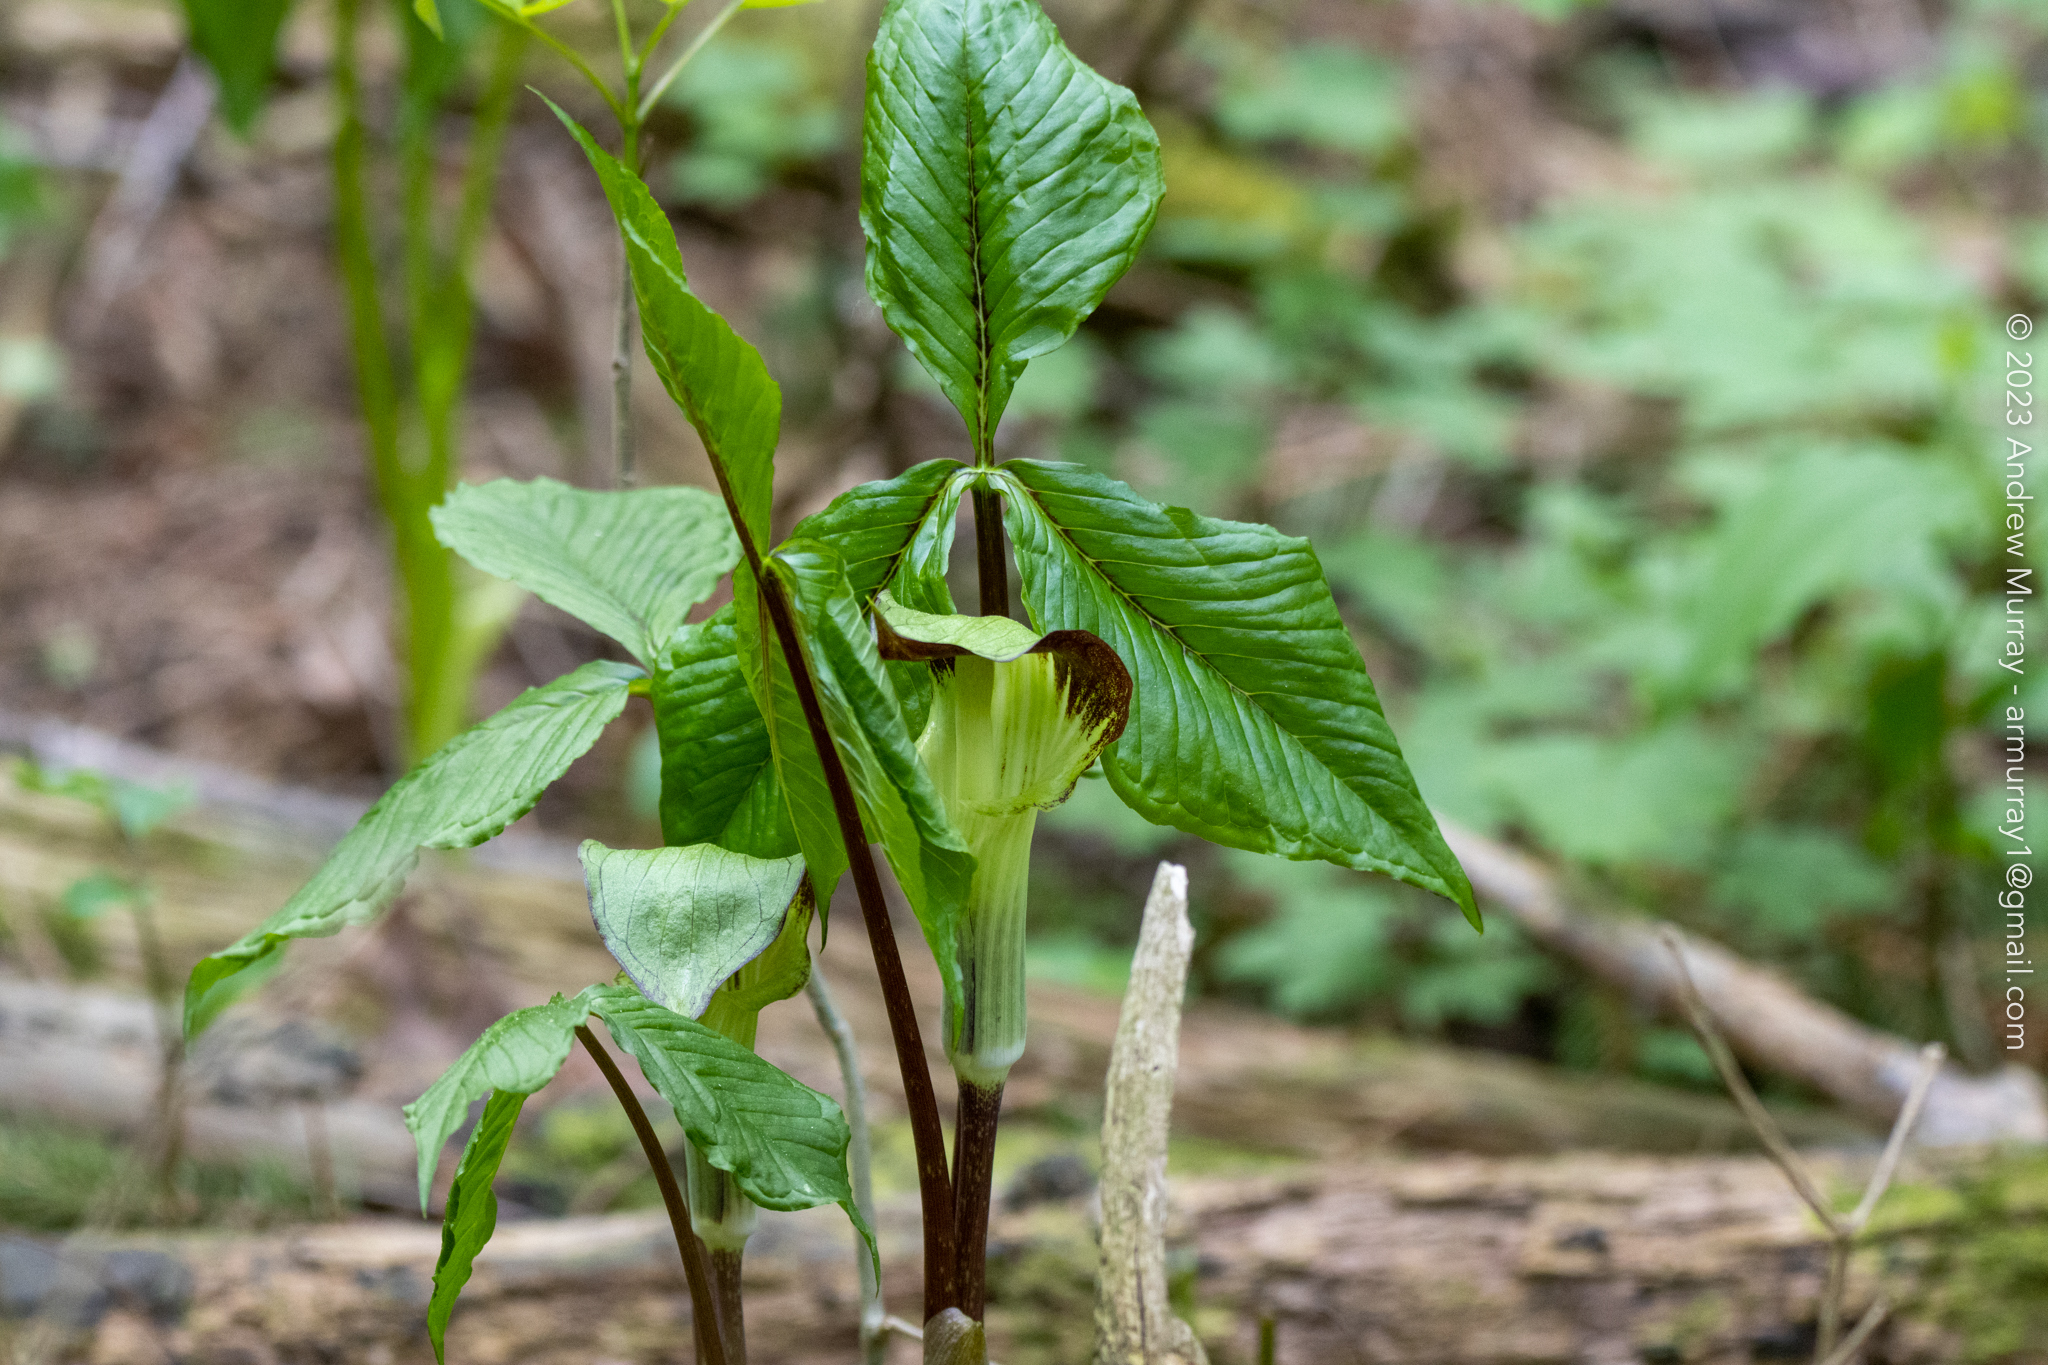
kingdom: Plantae
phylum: Tracheophyta
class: Liliopsida
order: Alismatales
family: Araceae
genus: Arisaema
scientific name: Arisaema triphyllum
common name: Jack-in-the-pulpit
